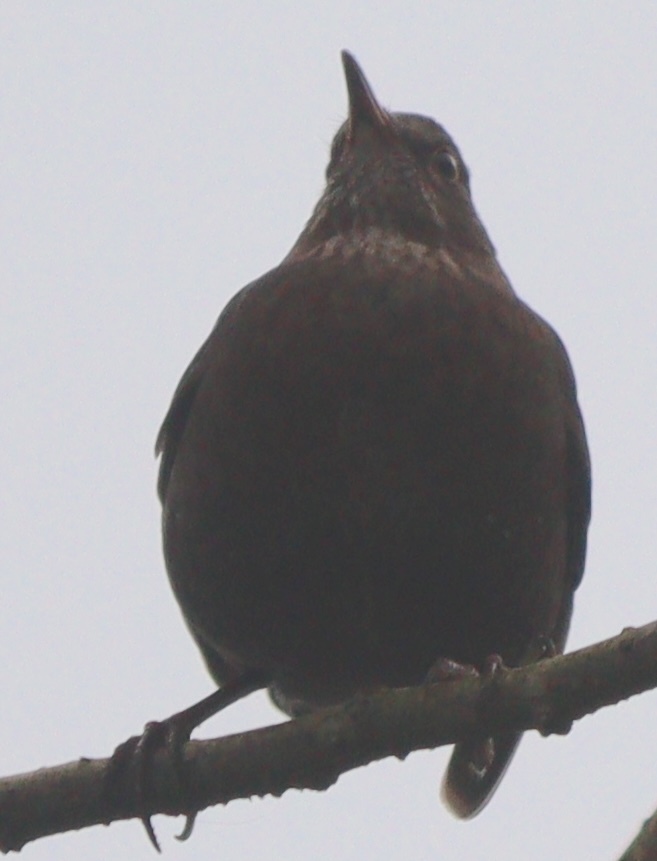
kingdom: Animalia
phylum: Chordata
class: Aves
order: Passeriformes
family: Turdidae
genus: Turdus
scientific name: Turdus merula
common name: Common blackbird
